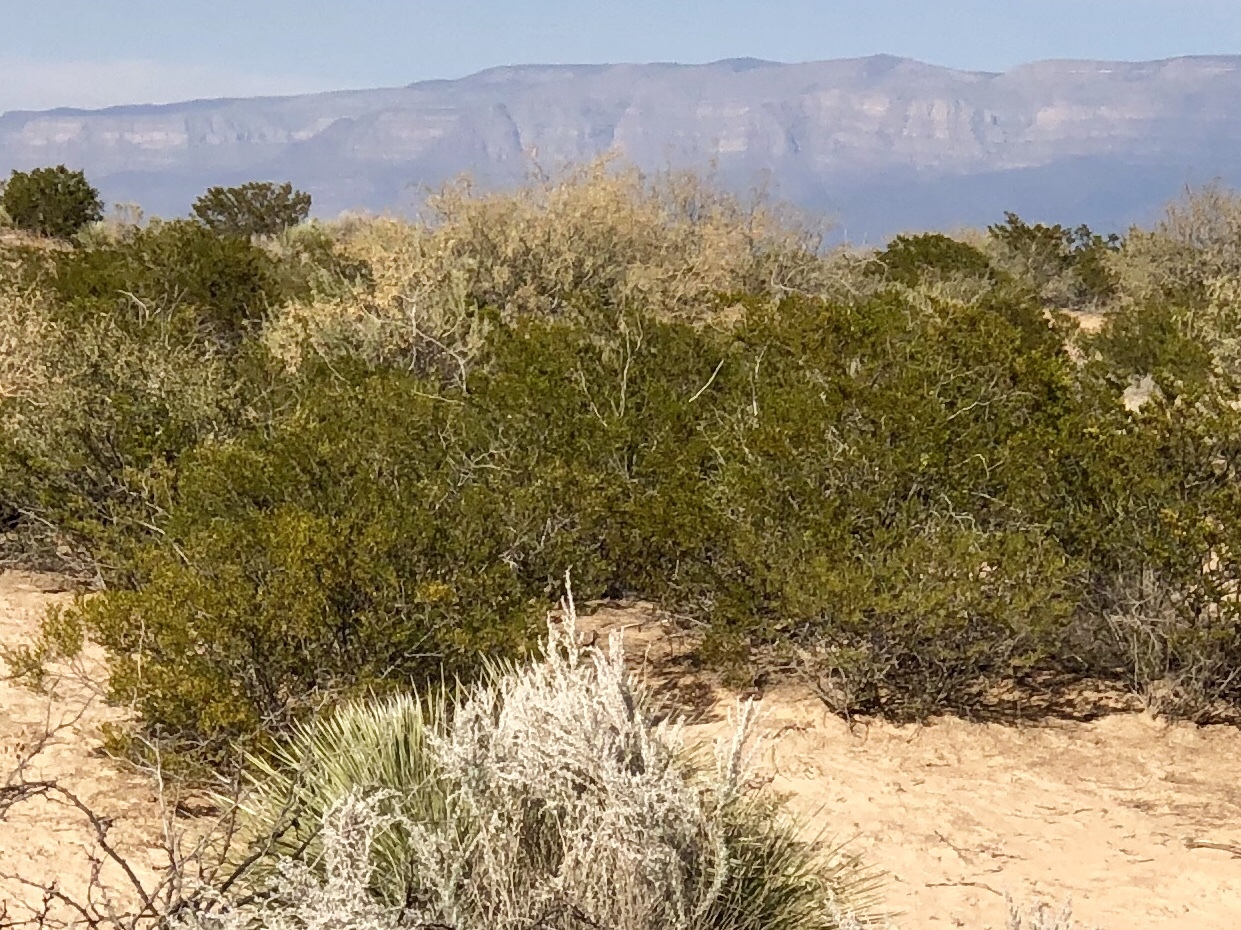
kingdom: Plantae
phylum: Tracheophyta
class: Magnoliopsida
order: Zygophyllales
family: Zygophyllaceae
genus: Larrea
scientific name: Larrea tridentata
